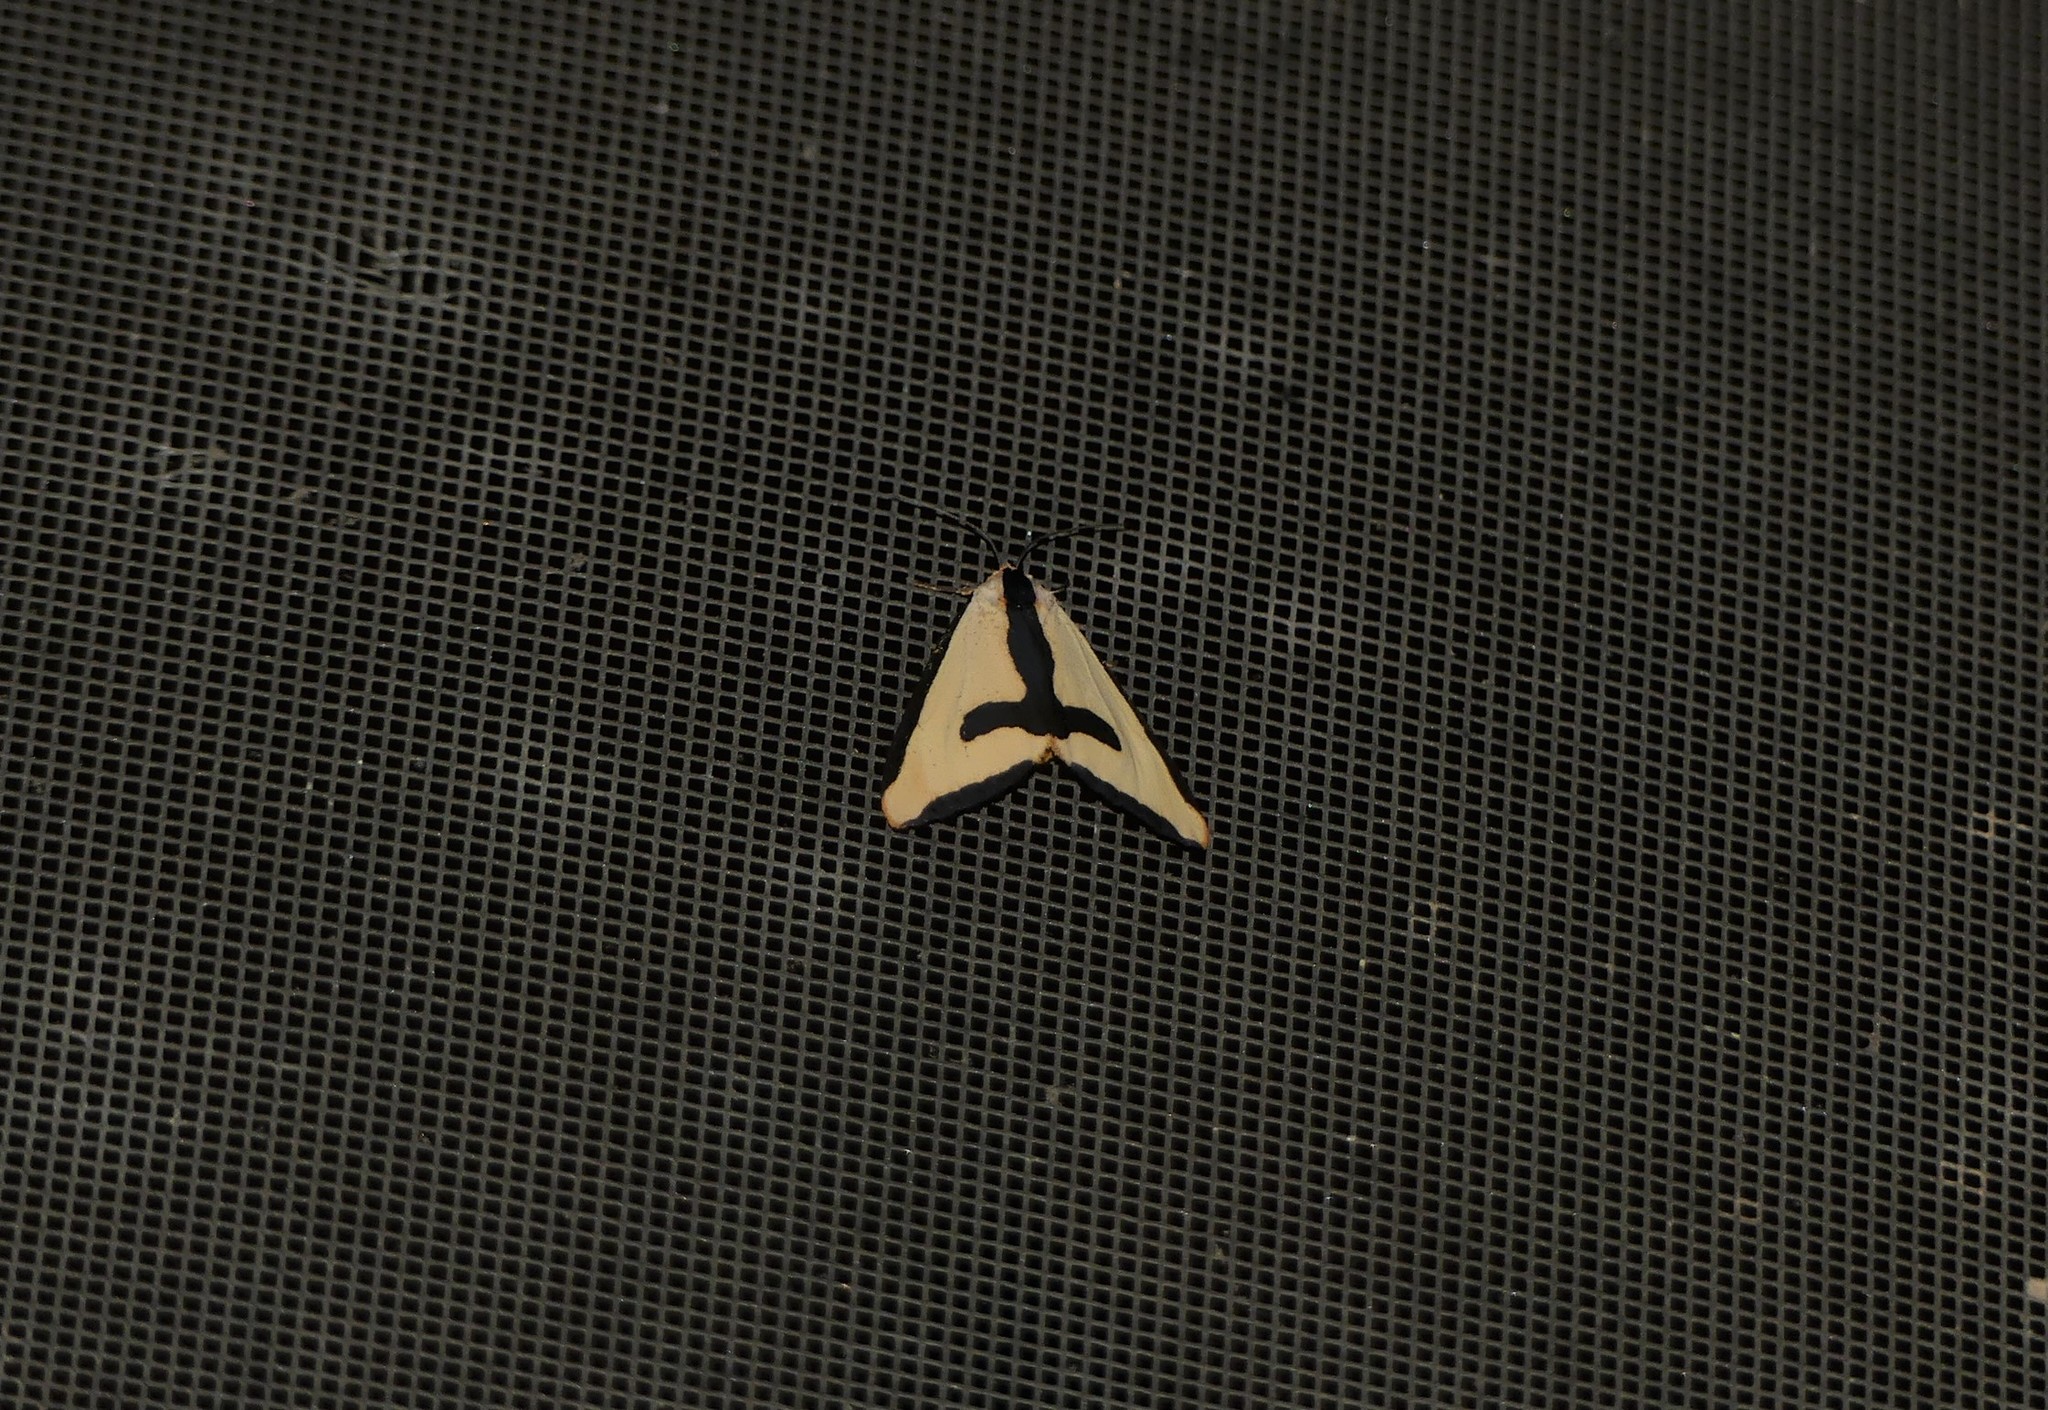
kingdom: Animalia
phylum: Arthropoda
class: Insecta
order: Lepidoptera
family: Erebidae
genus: Haploa
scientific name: Haploa clymene
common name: Clymene moth
